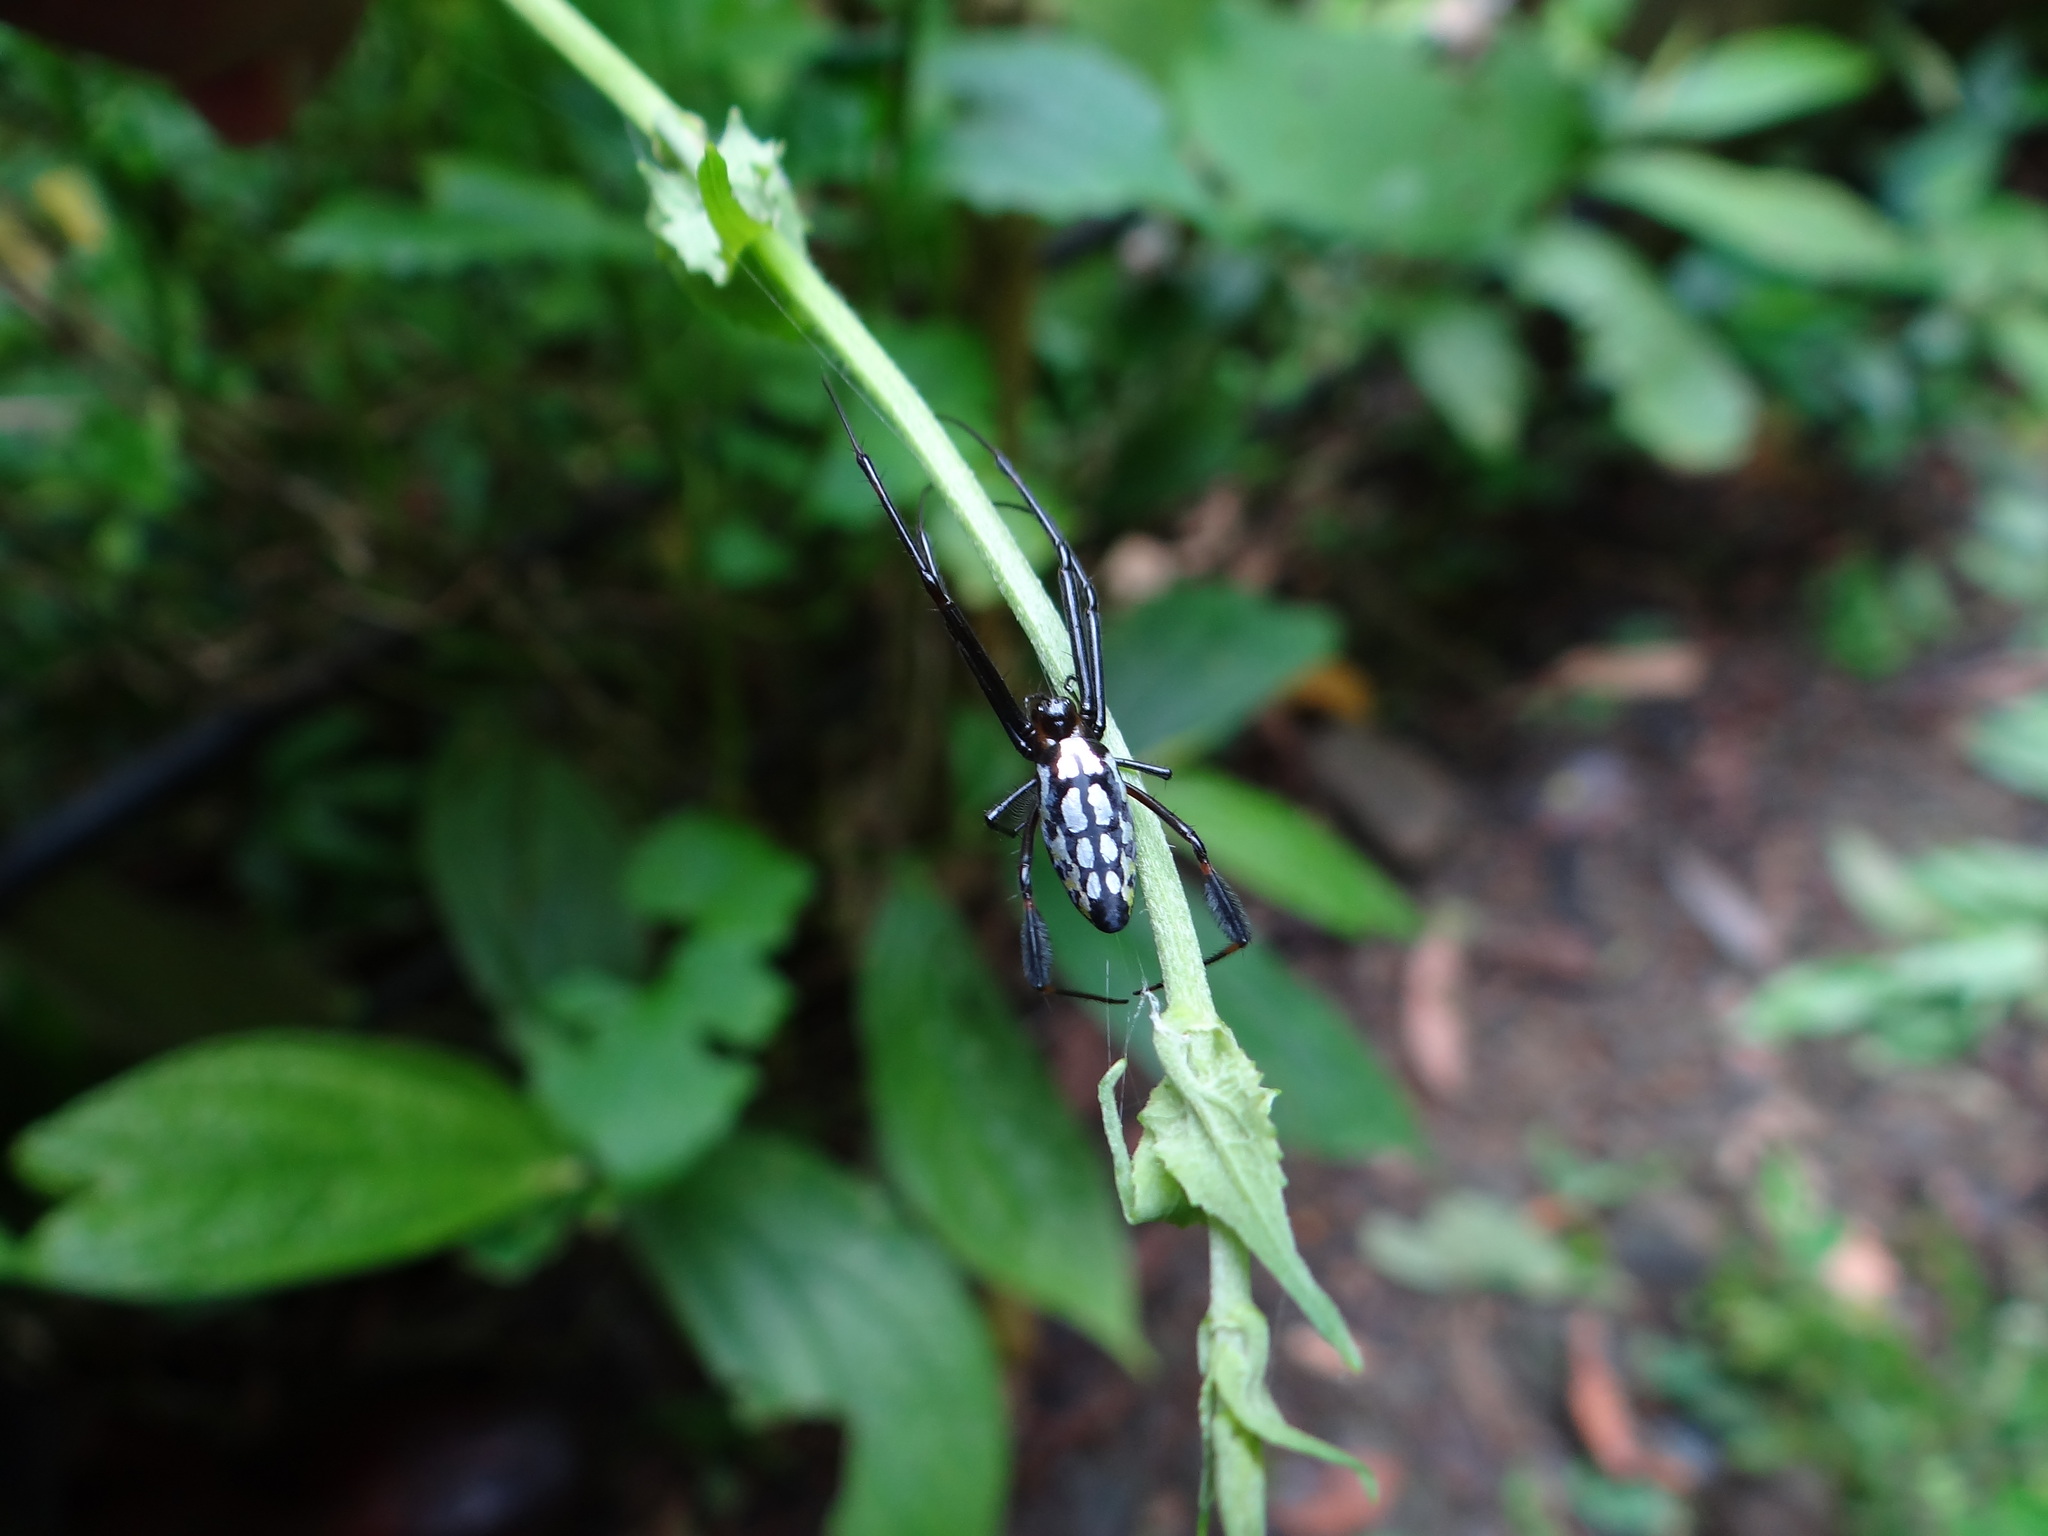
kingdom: Animalia
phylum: Arthropoda
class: Arachnida
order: Araneae
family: Tetragnathidae
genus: Leucauge
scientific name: Leucauge tessellata
